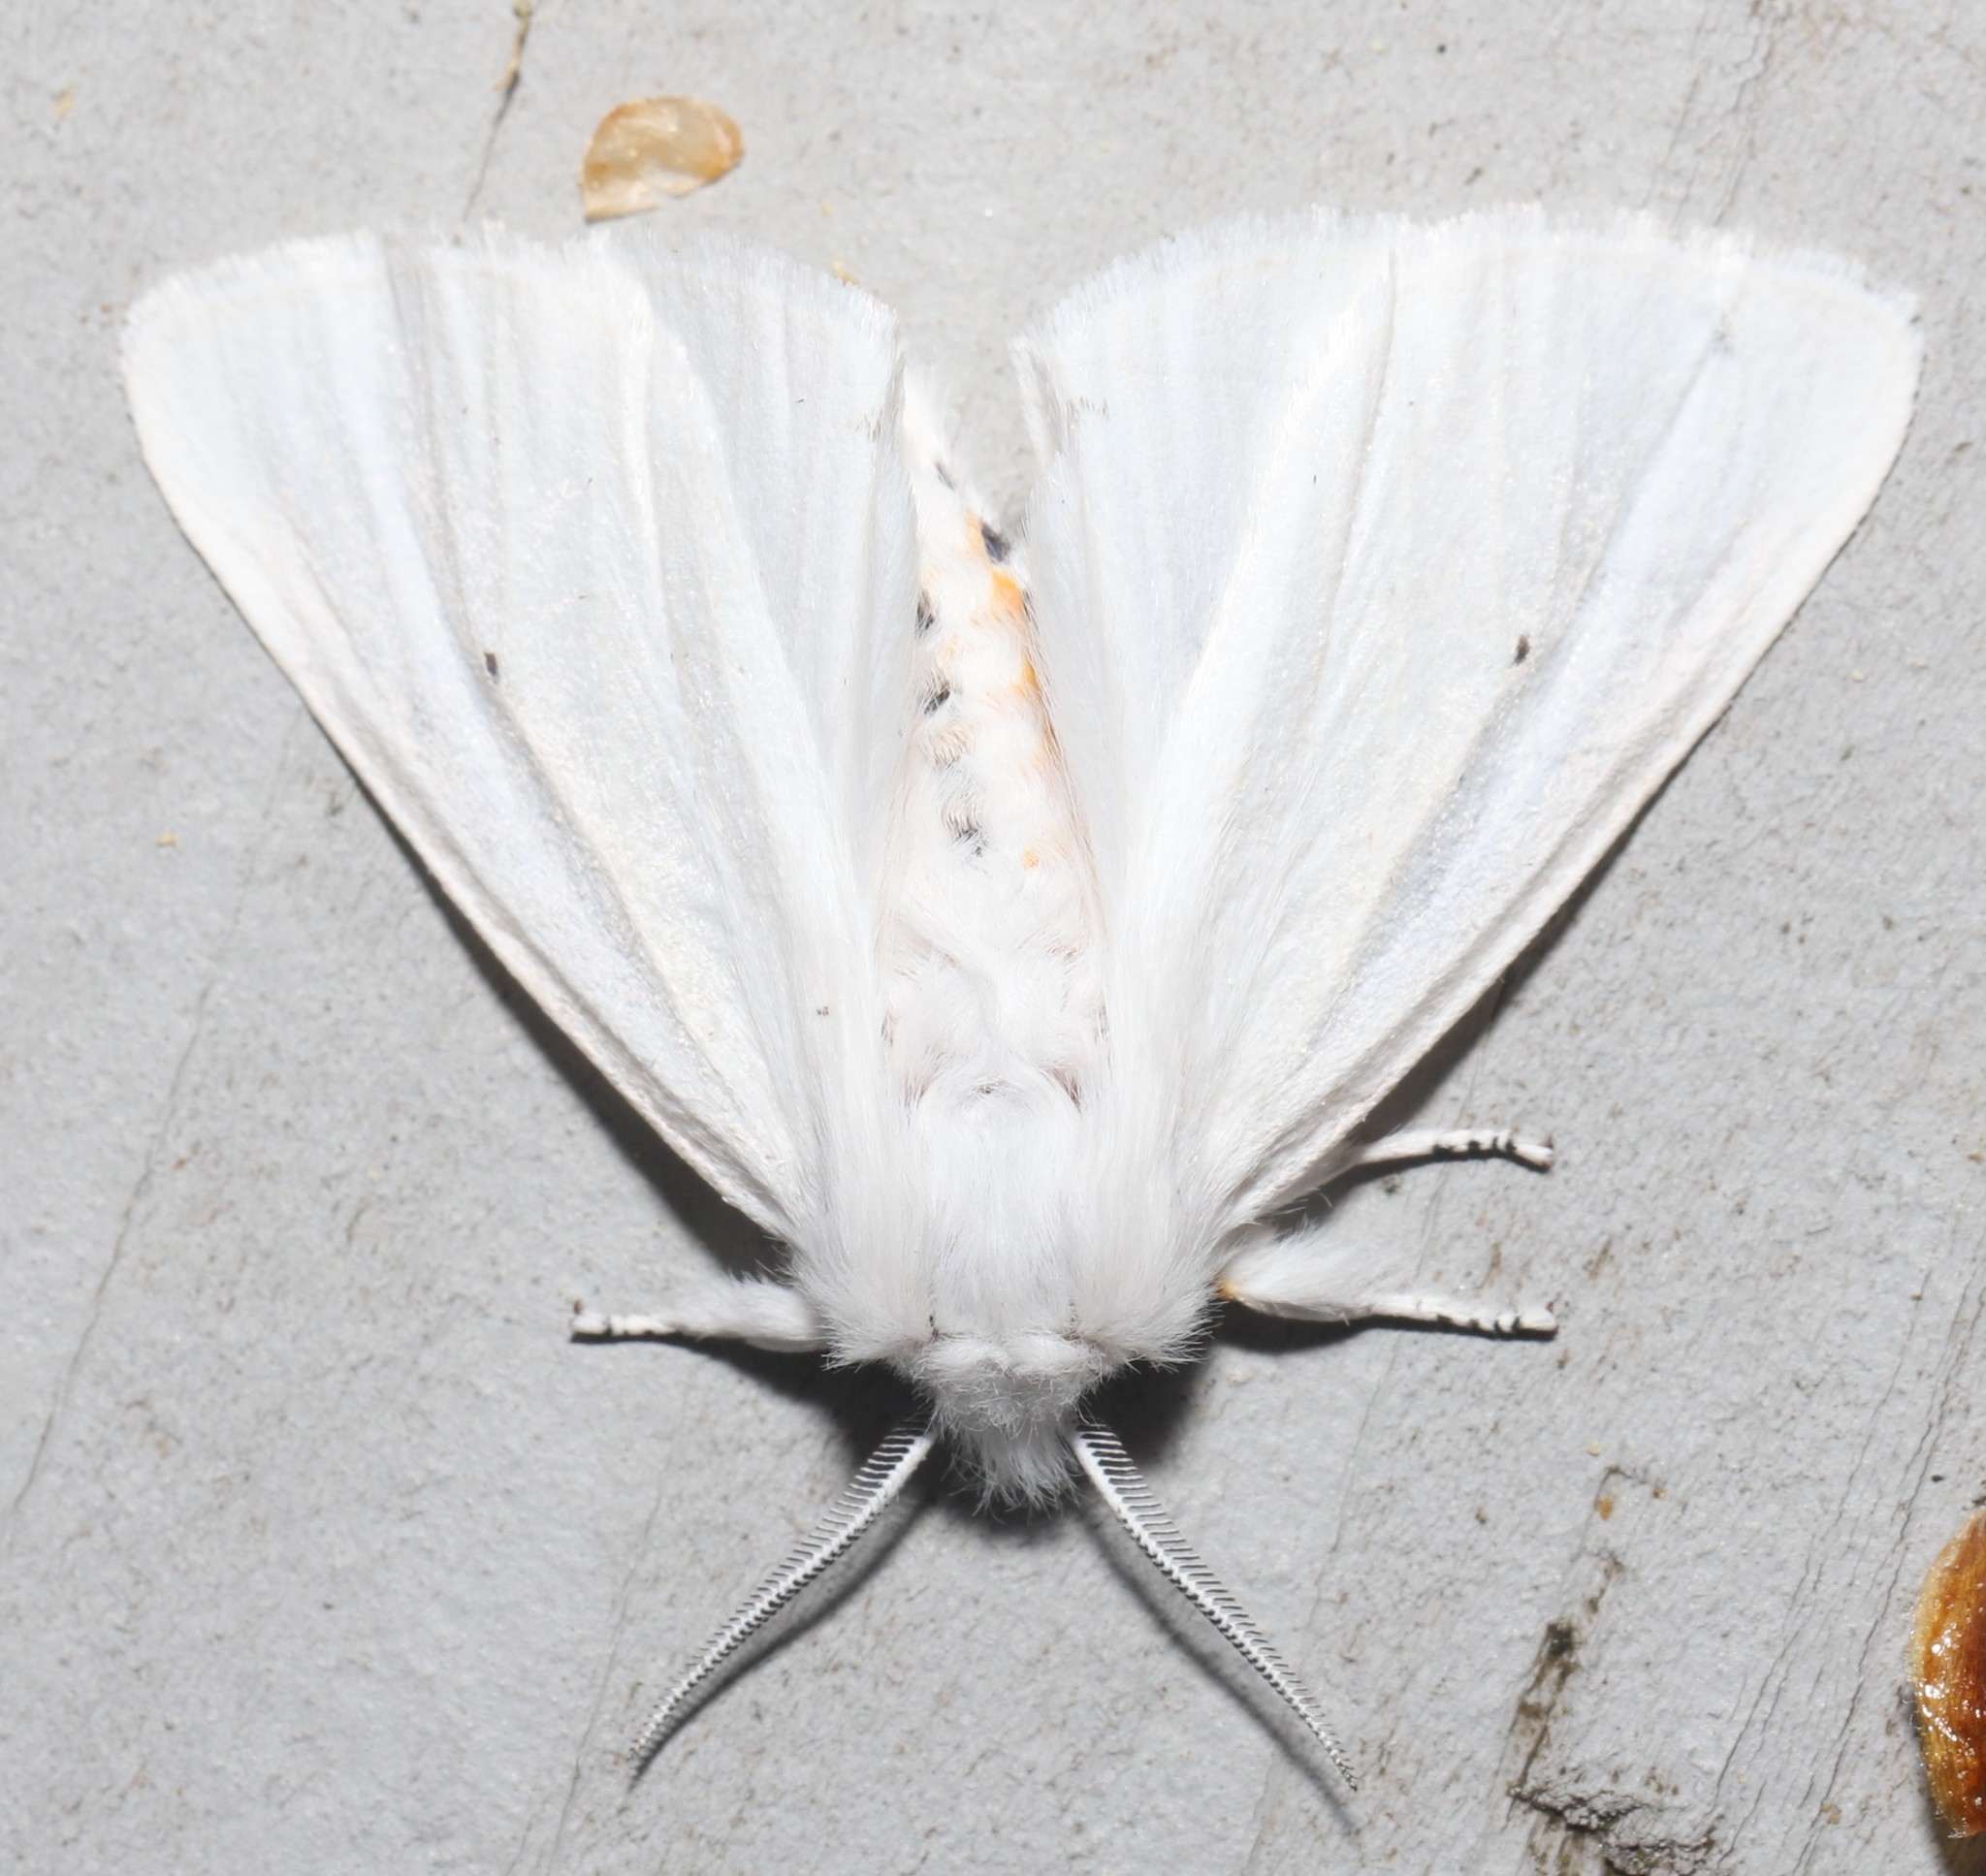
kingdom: Animalia
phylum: Arthropoda
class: Insecta
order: Lepidoptera
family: Erebidae
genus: Spilosoma
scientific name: Spilosoma virginica
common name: Virginia tiger moth
